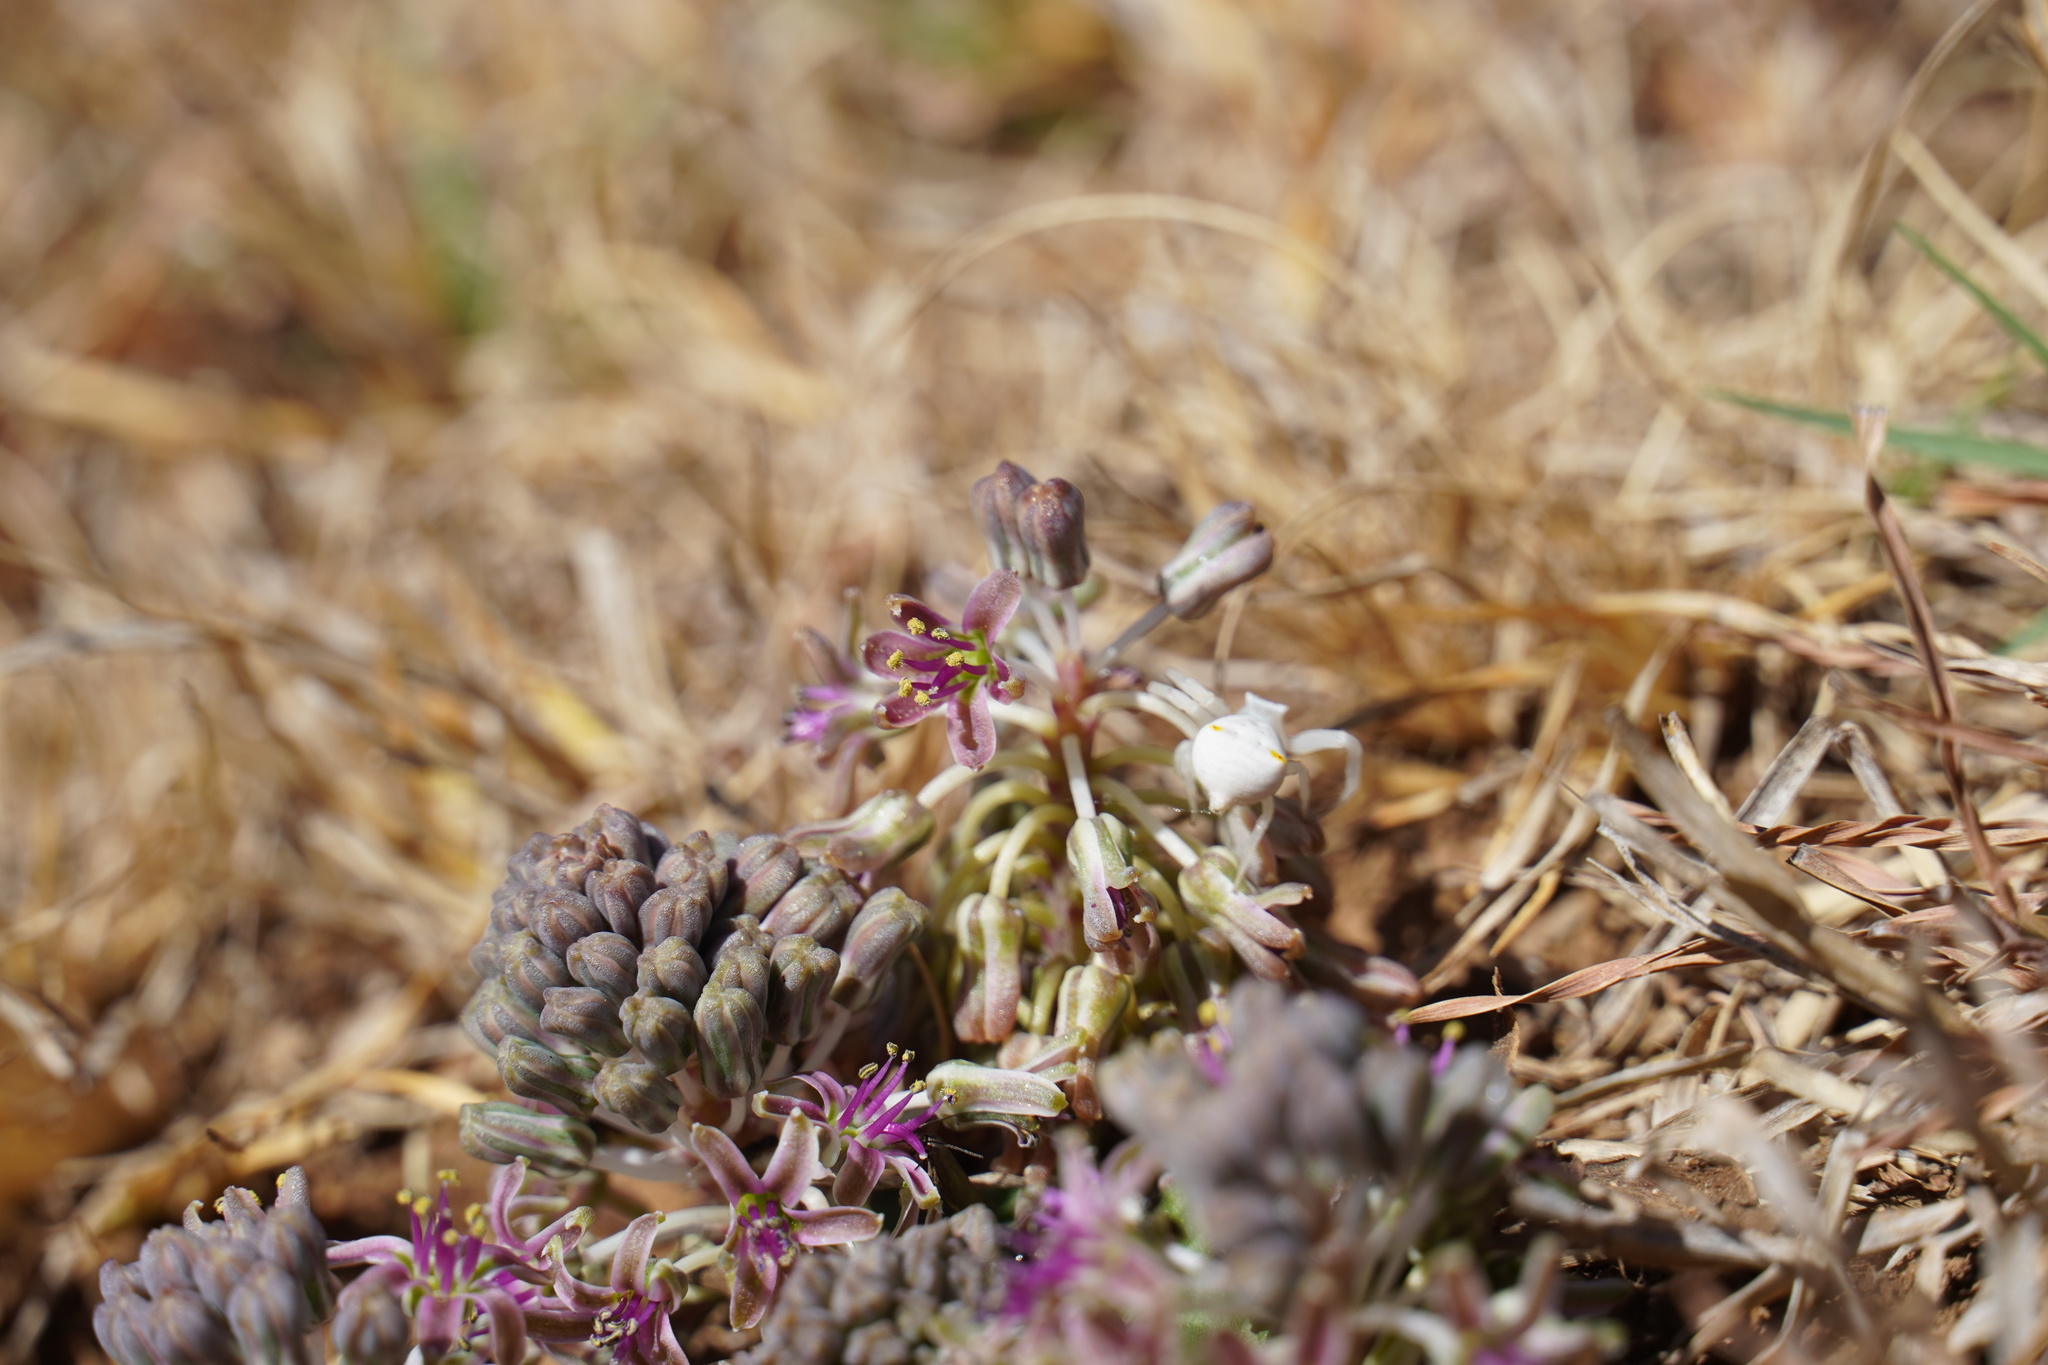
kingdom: Plantae
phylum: Tracheophyta
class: Liliopsida
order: Asparagales
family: Asparagaceae
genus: Ledebouria
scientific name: Ledebouria ovatifolia
